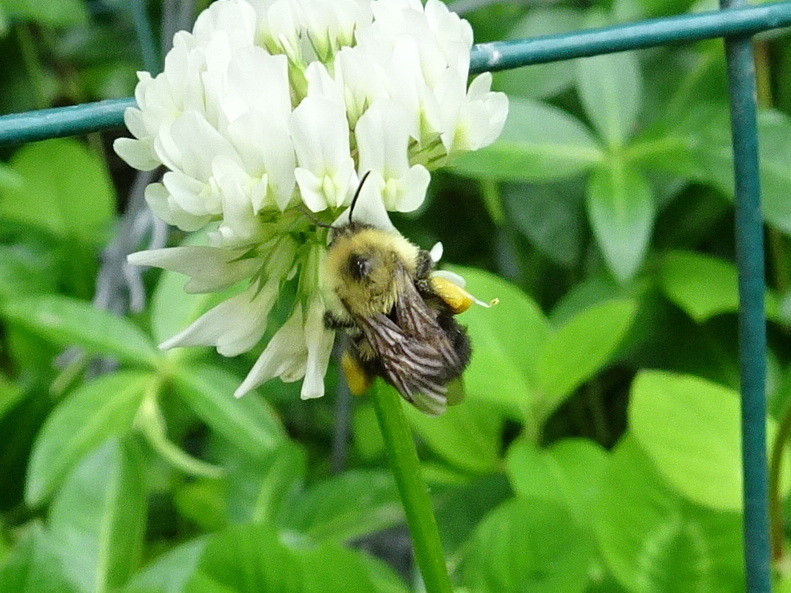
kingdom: Animalia
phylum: Arthropoda
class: Insecta
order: Hymenoptera
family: Apidae
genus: Bombus
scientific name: Bombus bimaculatus
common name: Two-spotted bumble bee
